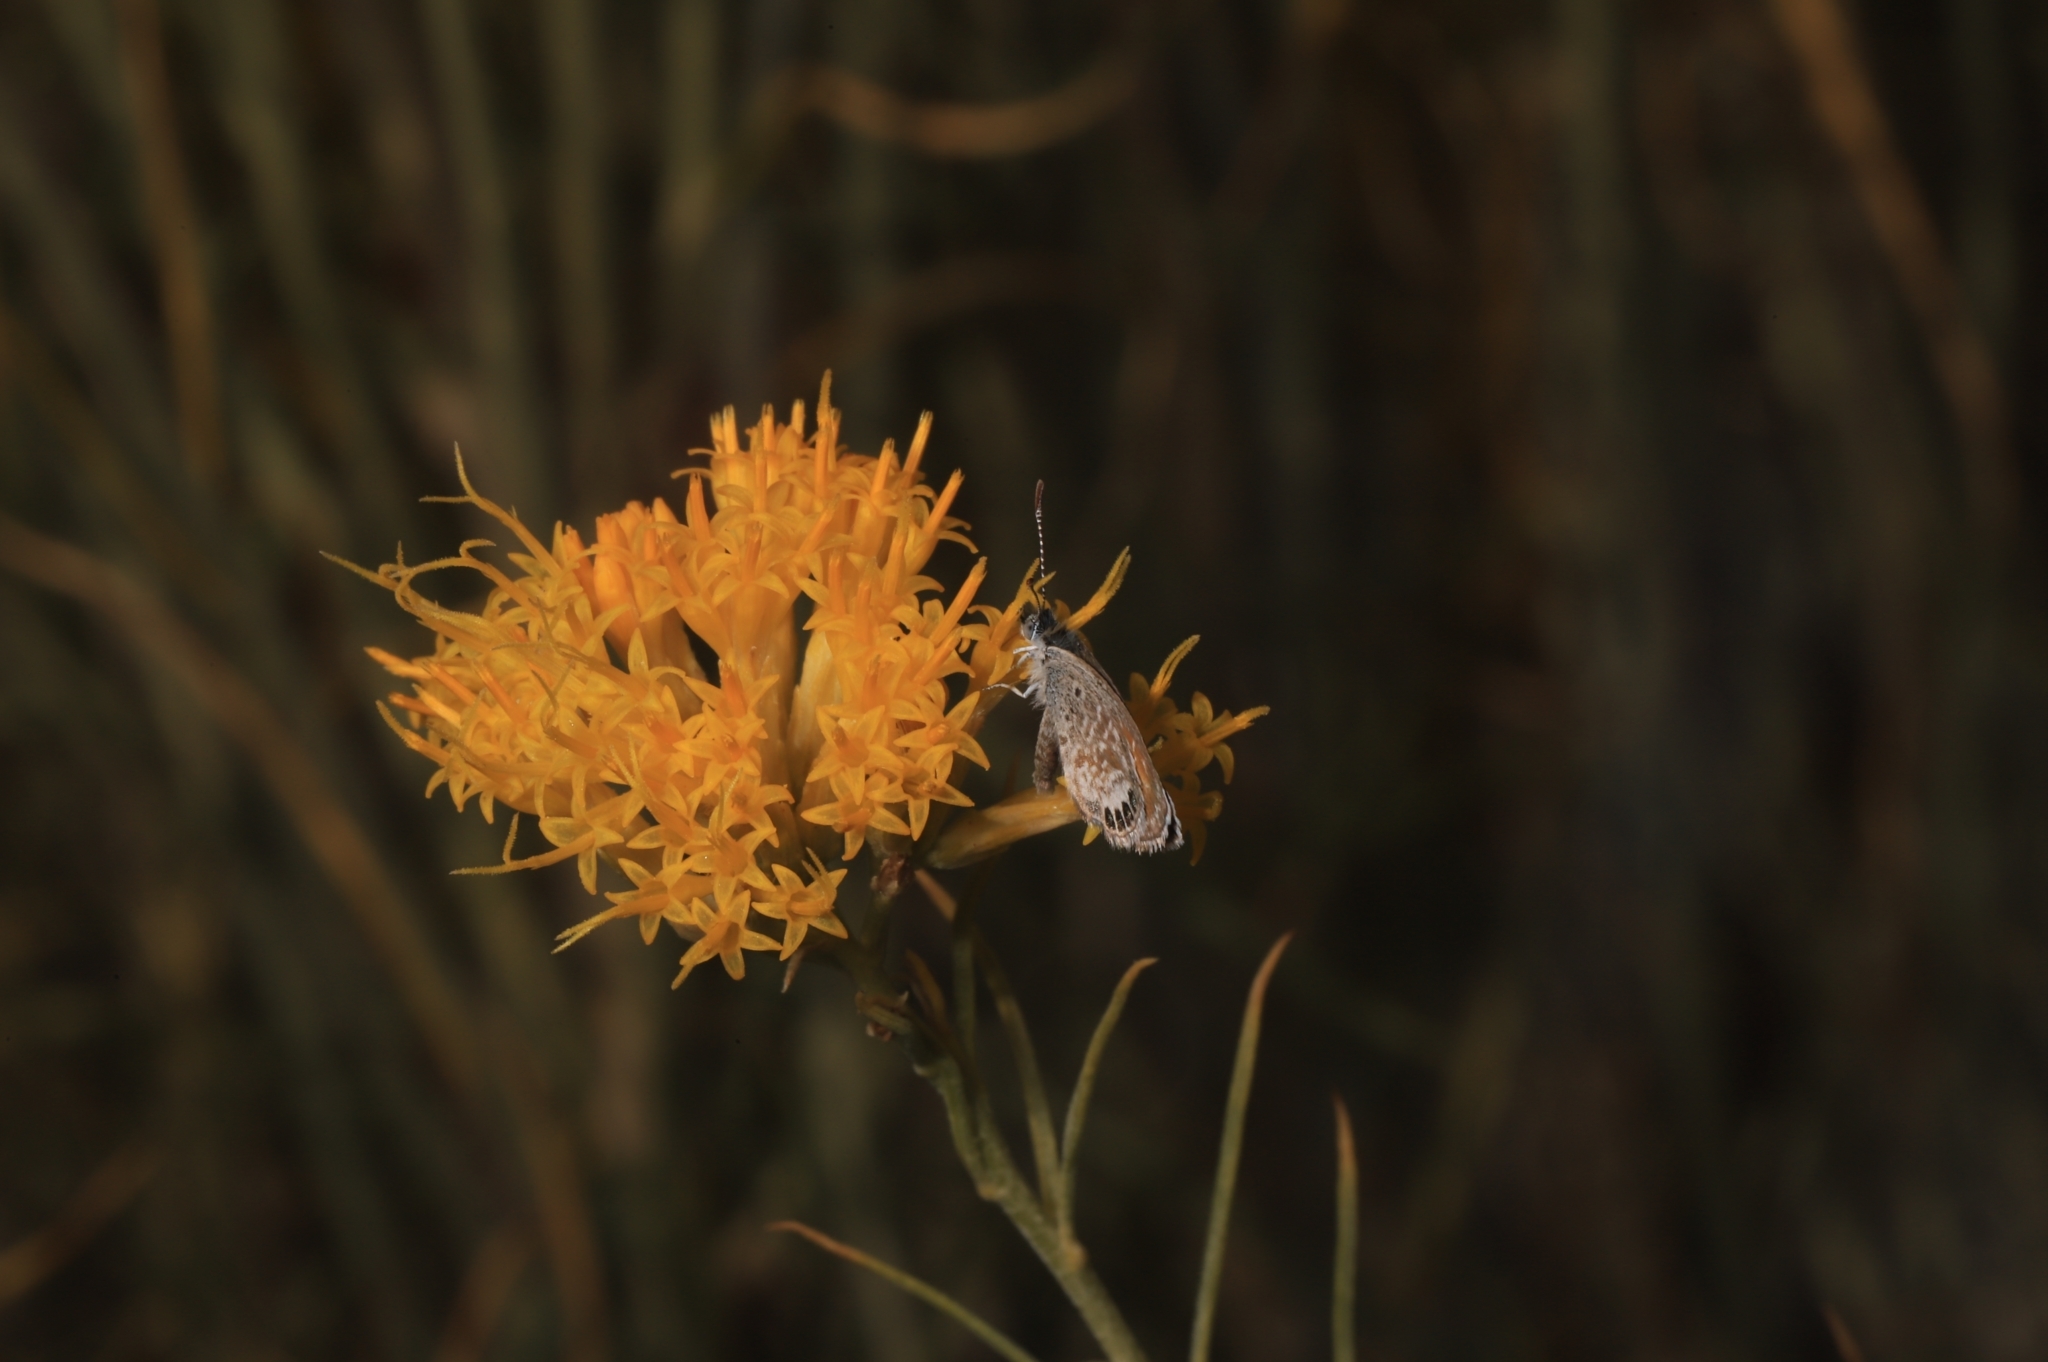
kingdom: Animalia
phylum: Arthropoda
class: Insecta
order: Lepidoptera
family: Lycaenidae
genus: Brephidium
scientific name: Brephidium exilis
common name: Pygmy blue
